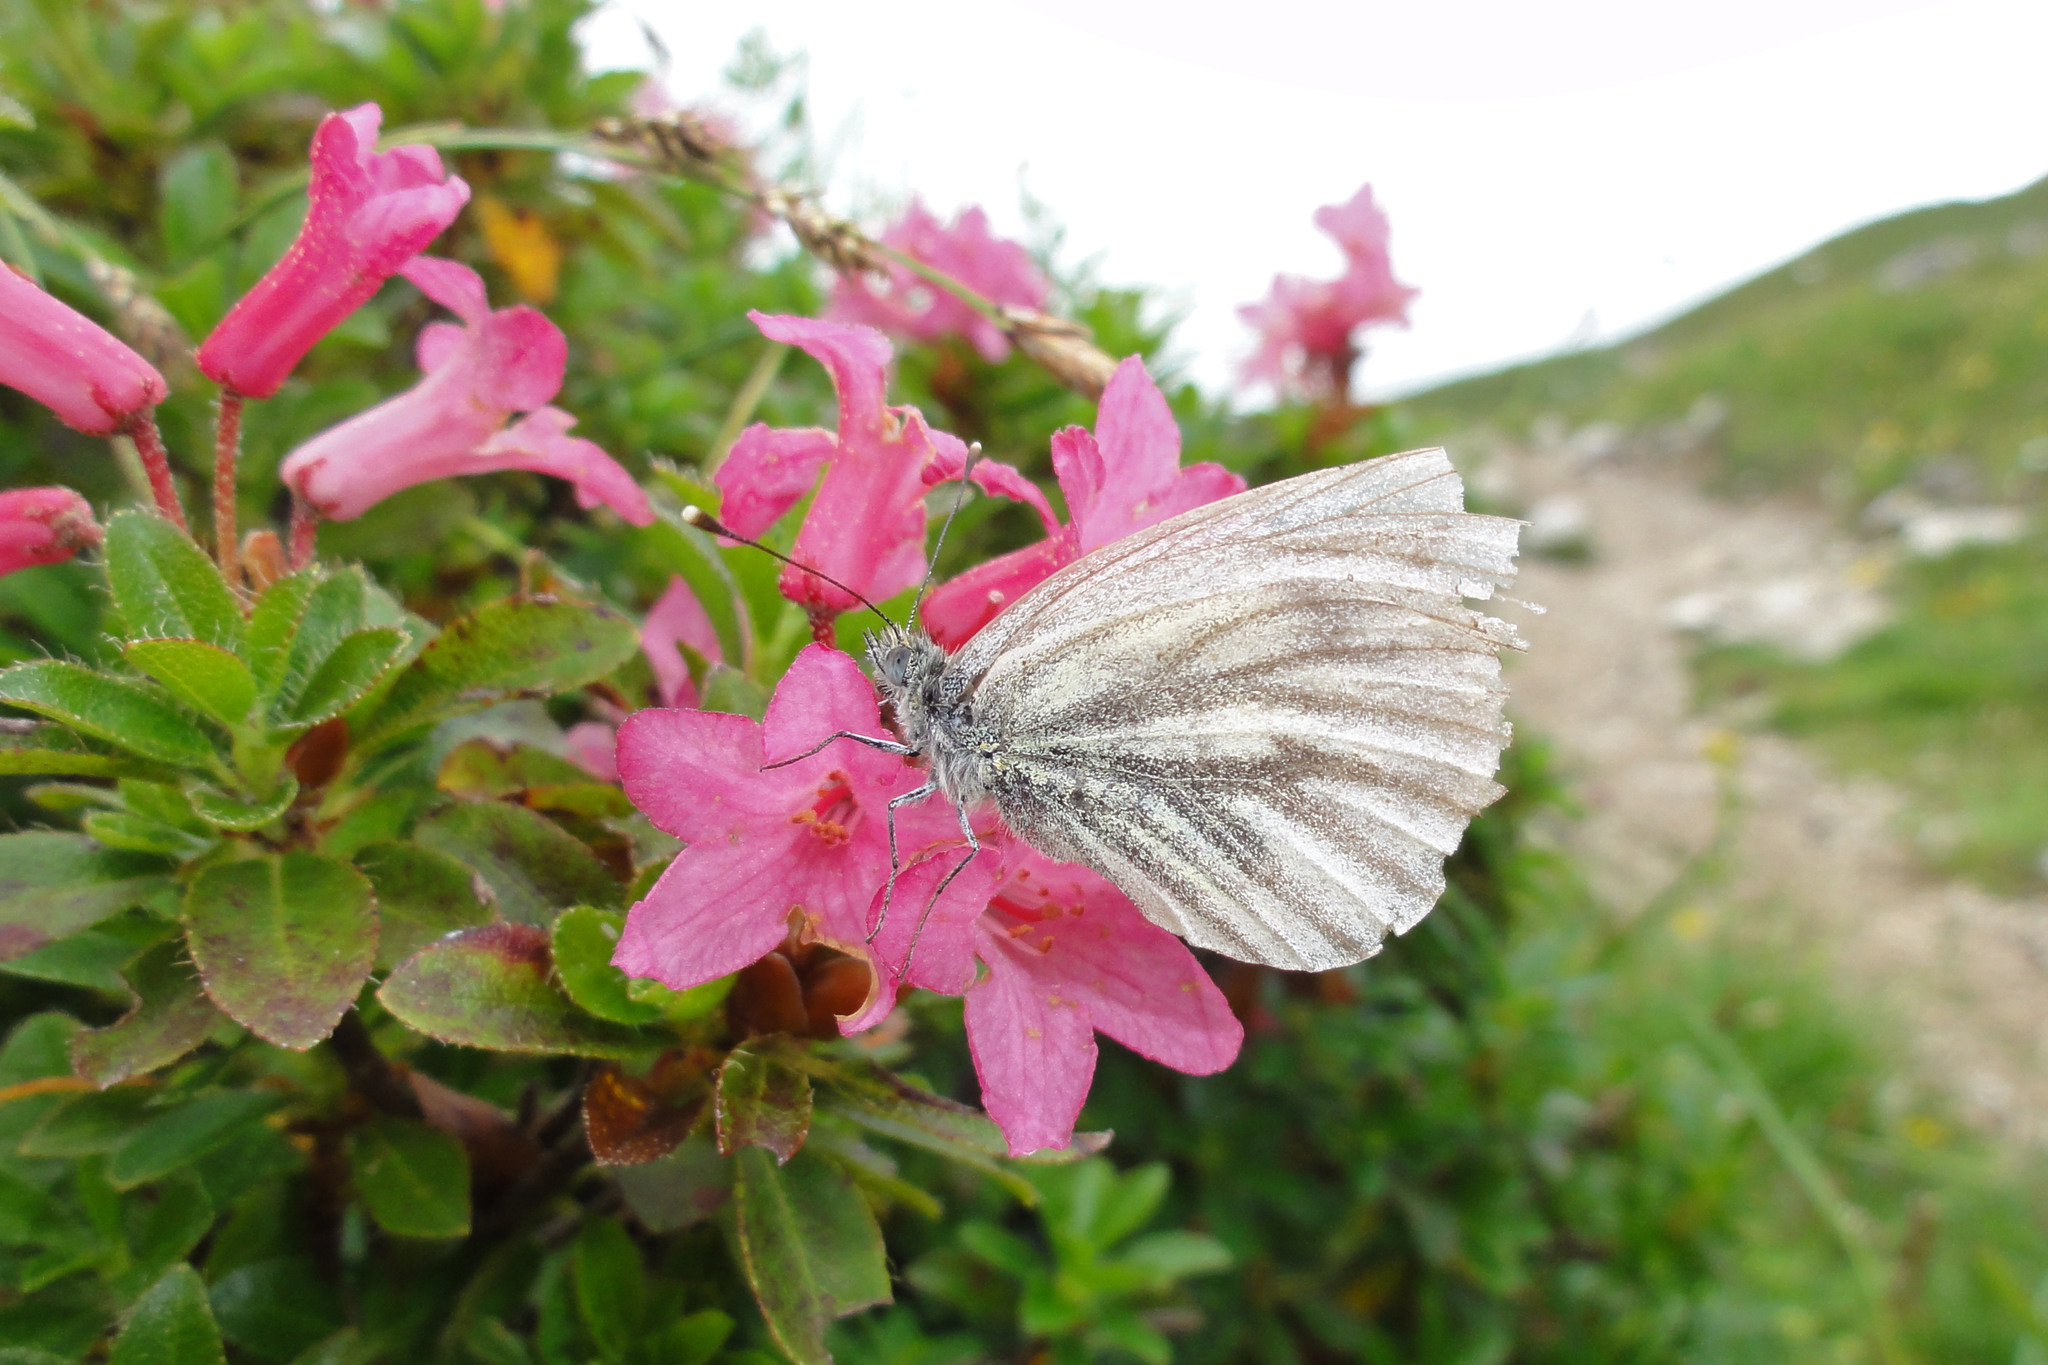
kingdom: Animalia
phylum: Arthropoda
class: Insecta
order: Lepidoptera
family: Pieridae
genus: Pieris
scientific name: Pieris bryoniae
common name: Mountain green-veined white
